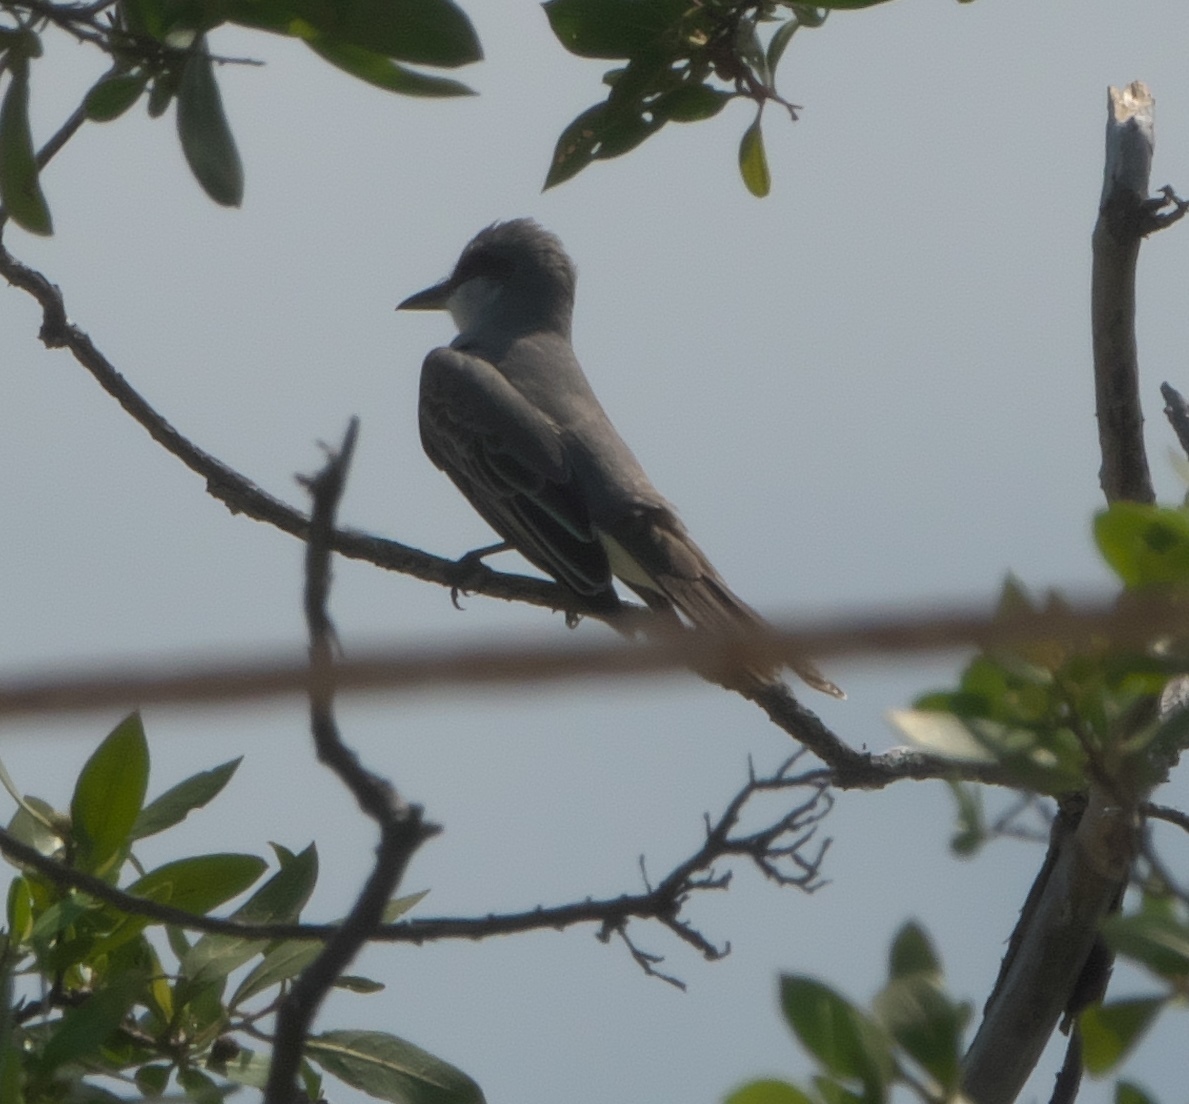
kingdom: Animalia
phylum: Chordata
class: Aves
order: Passeriformes
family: Tyrannidae
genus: Tyrannus
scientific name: Tyrannus dominicensis
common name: Gray kingbird
